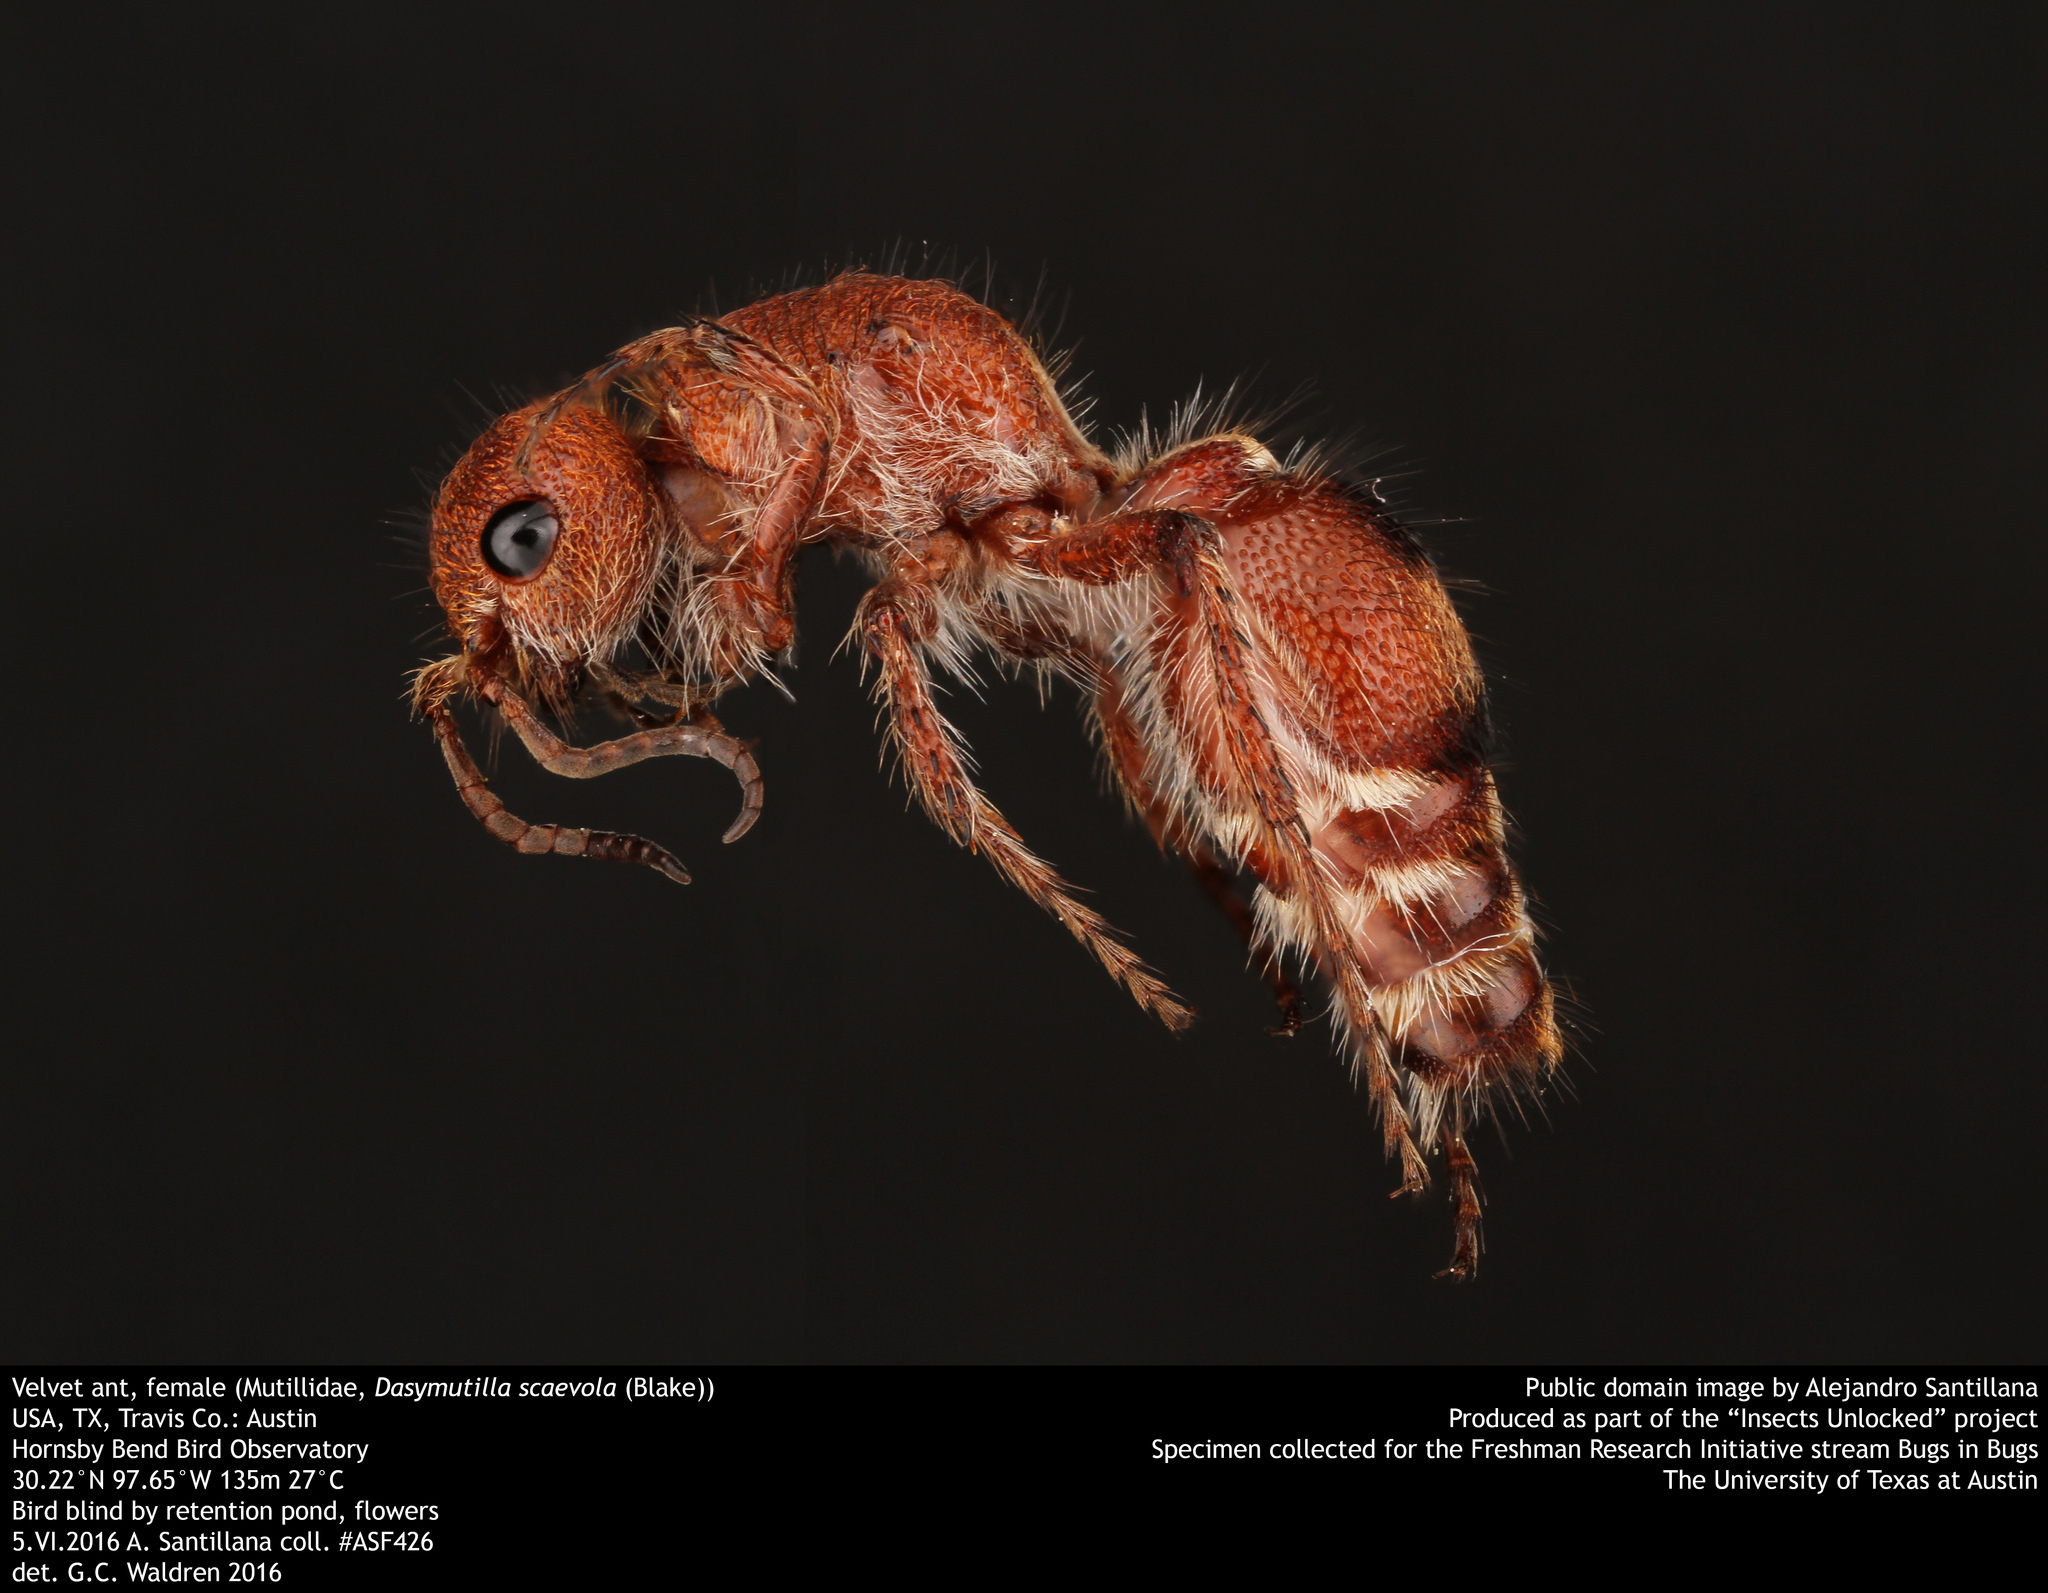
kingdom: Animalia
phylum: Arthropoda
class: Insecta
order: Hymenoptera
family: Mutillidae
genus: Dasymutilla
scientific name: Dasymutilla
